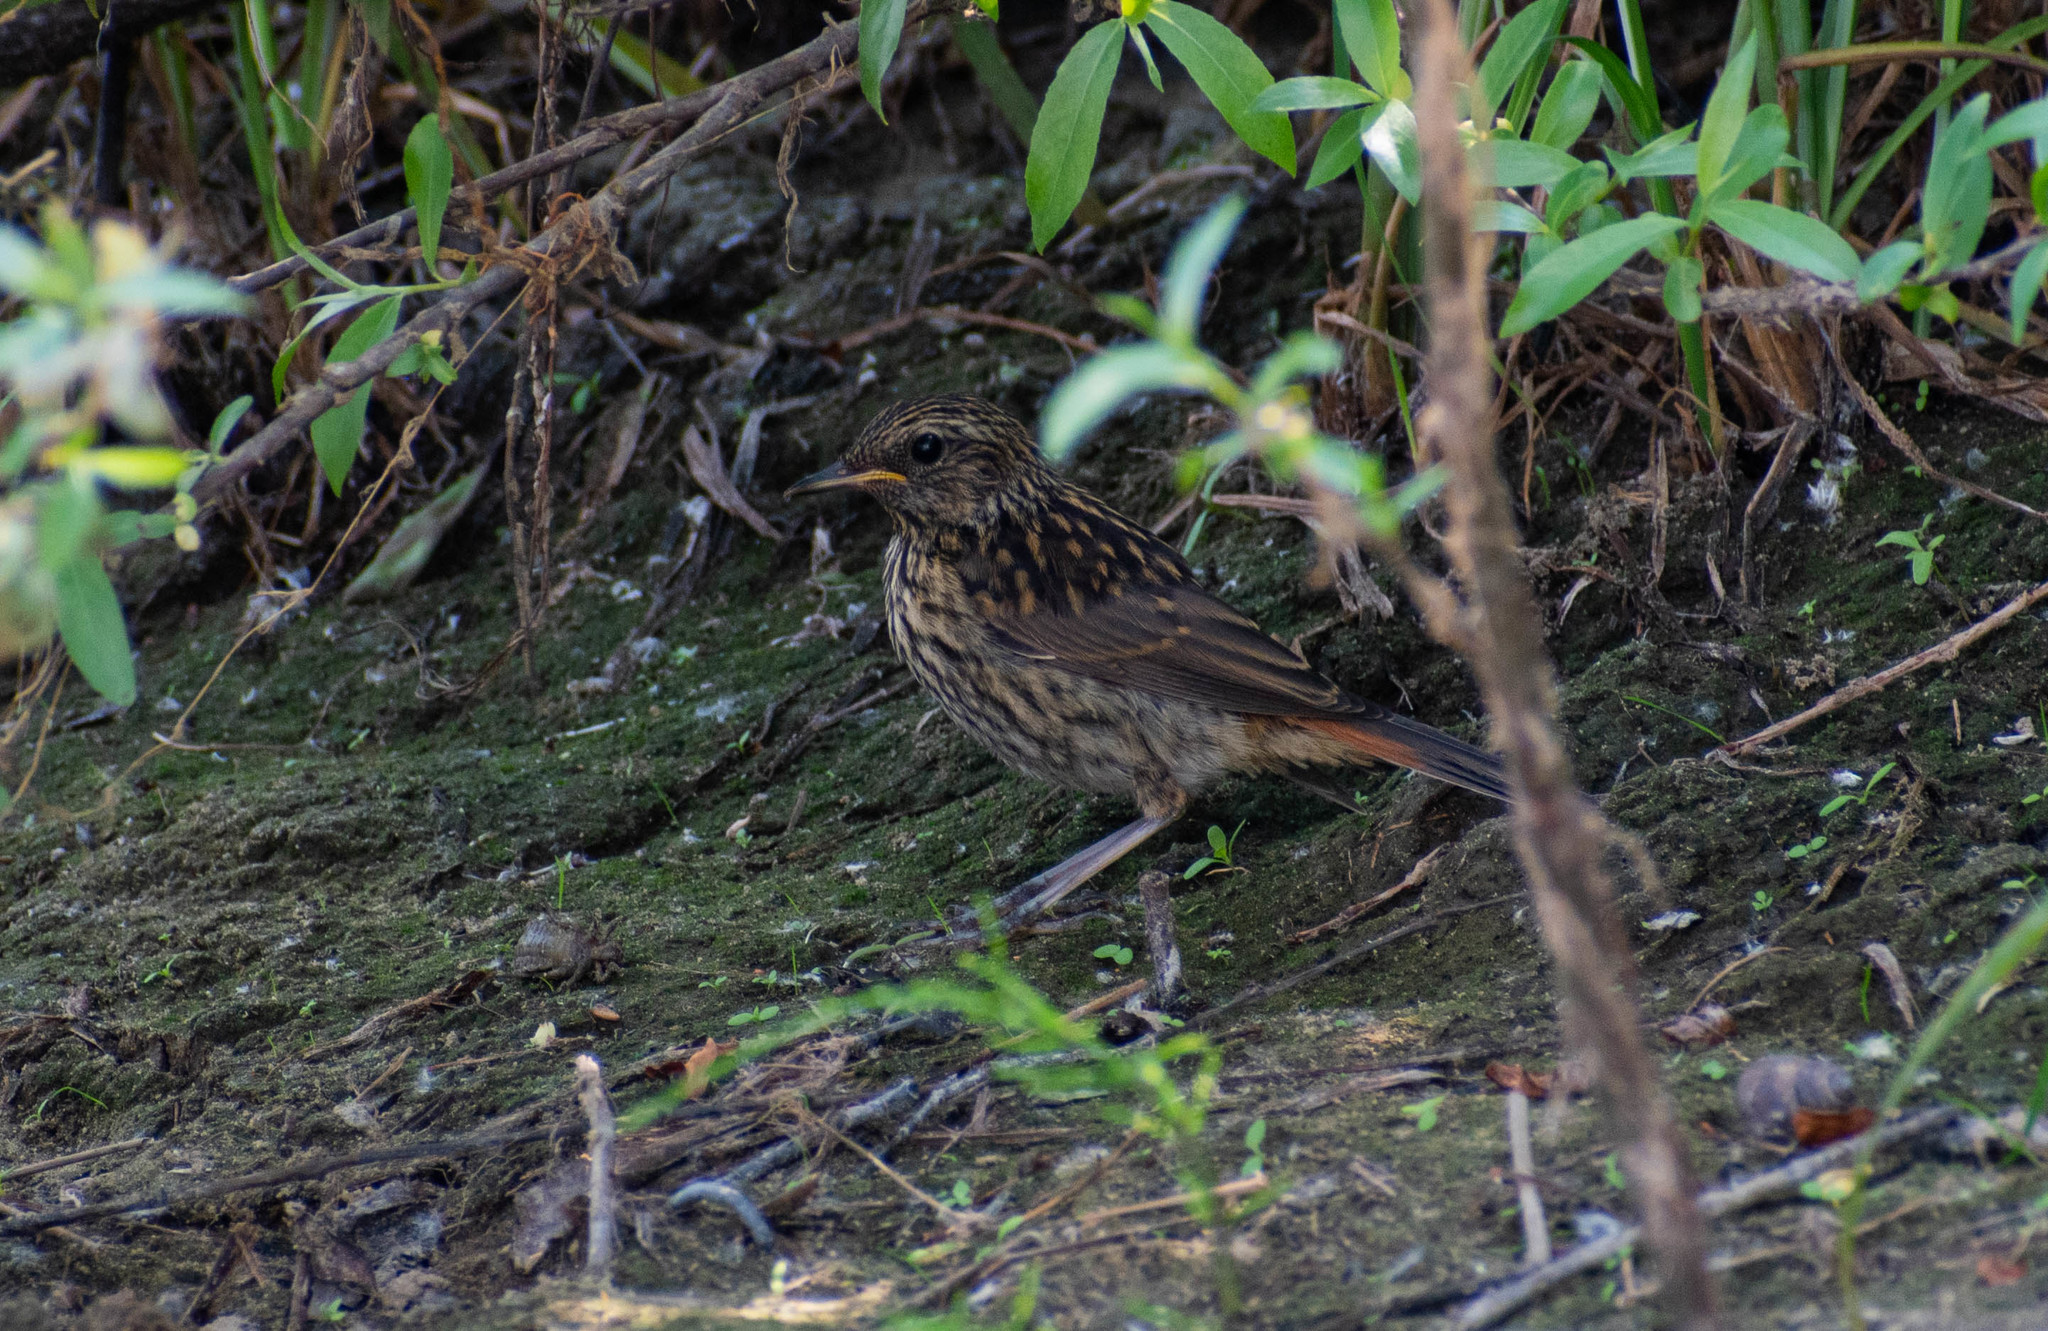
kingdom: Animalia
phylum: Chordata
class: Aves
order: Passeriformes
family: Muscicapidae
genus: Luscinia
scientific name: Luscinia svecica
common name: Bluethroat
